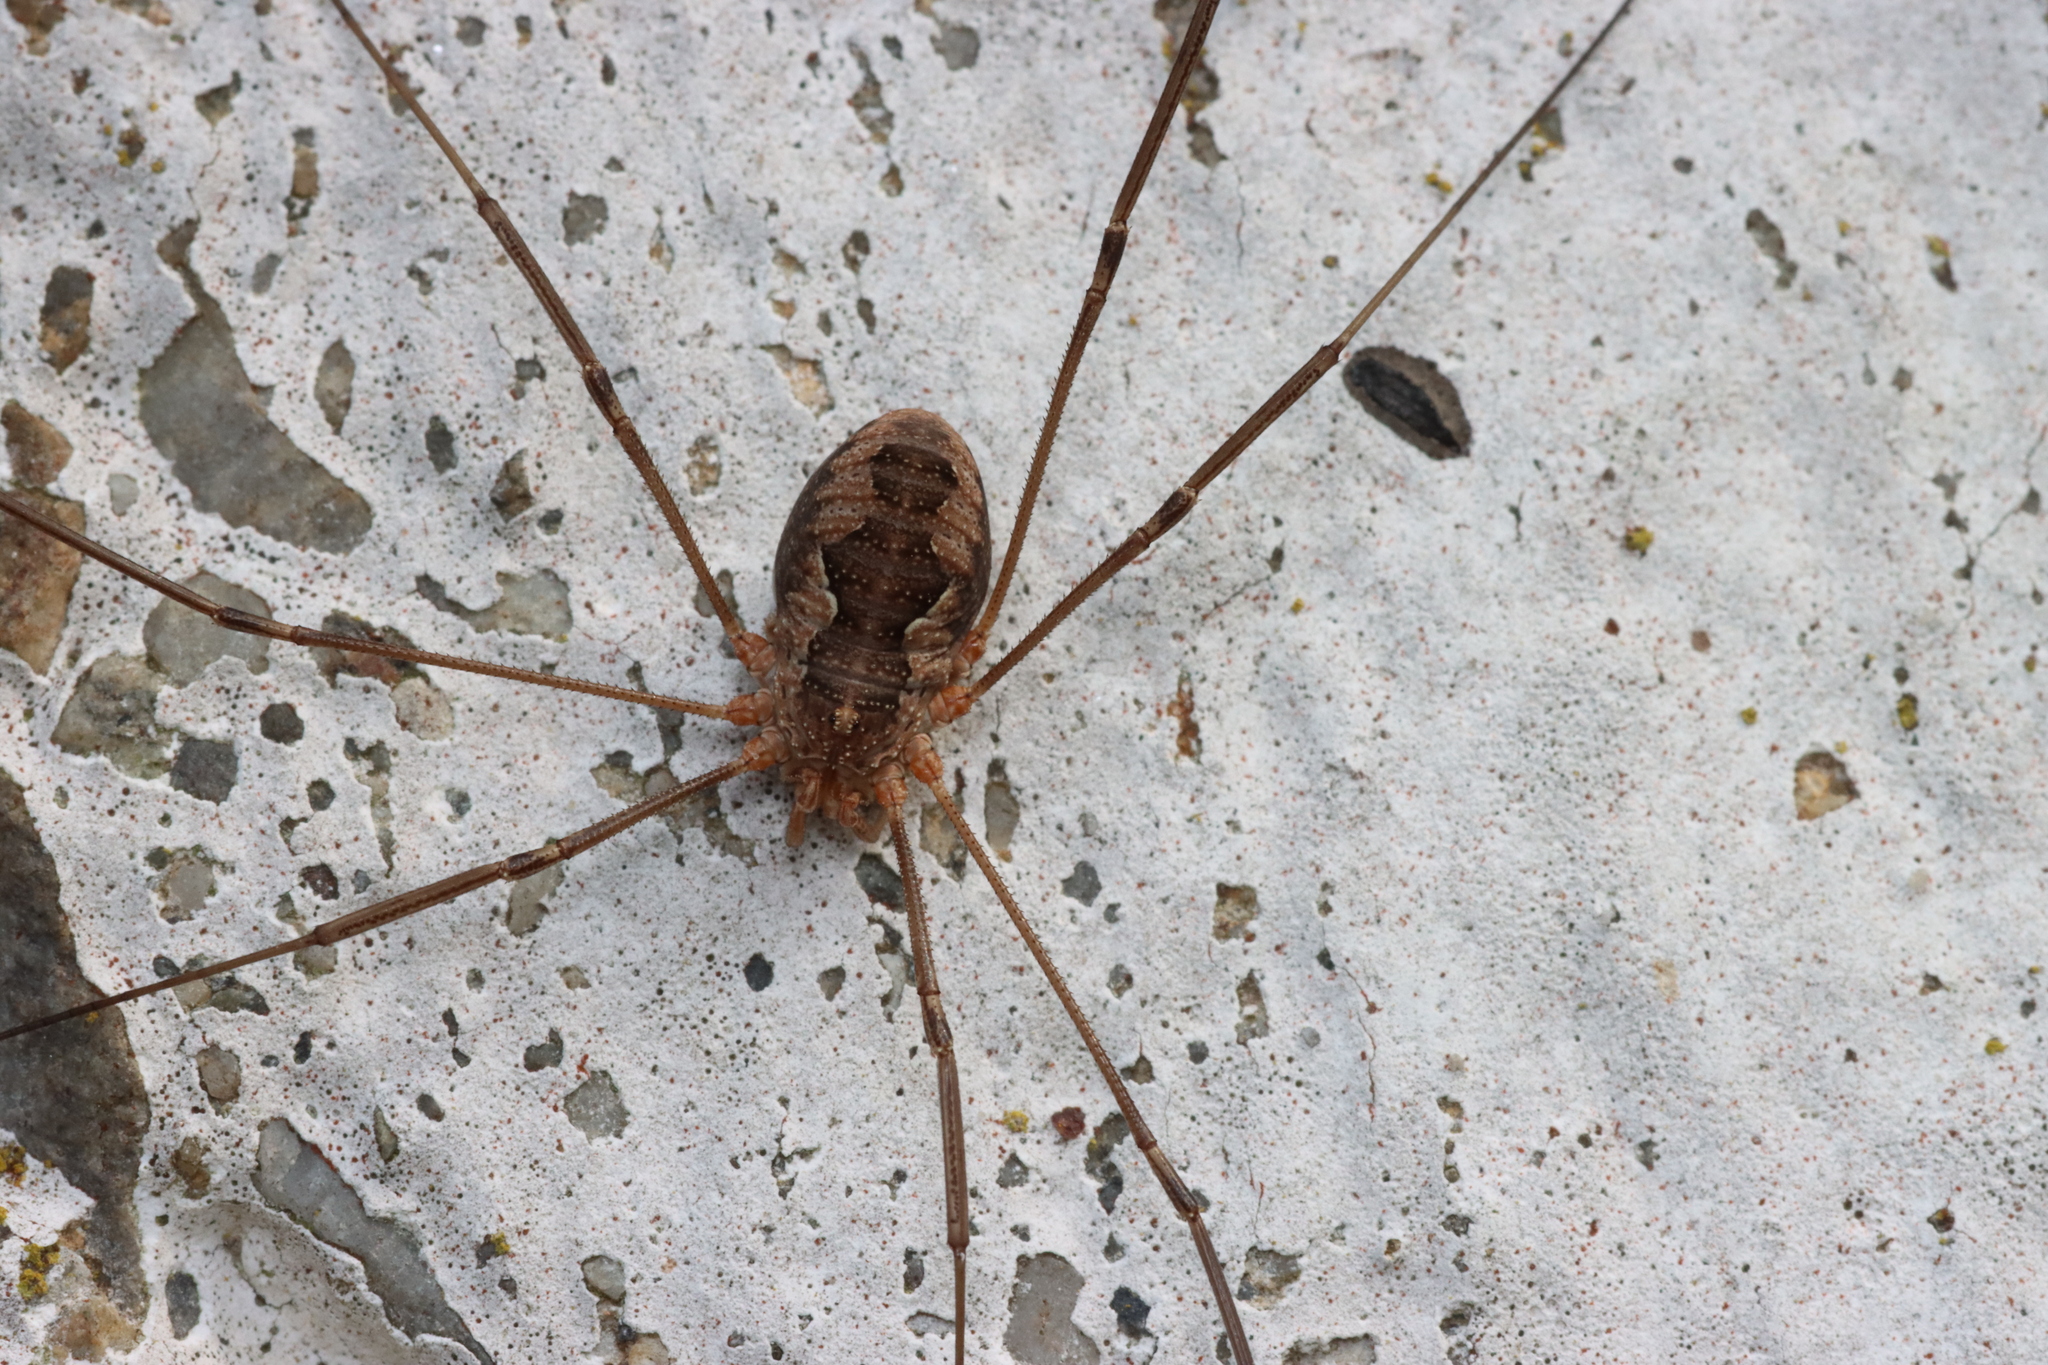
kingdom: Animalia
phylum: Arthropoda
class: Arachnida
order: Opiliones
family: Phalangiidae
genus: Phalangium
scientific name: Phalangium opilio
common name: Daddy longleg
